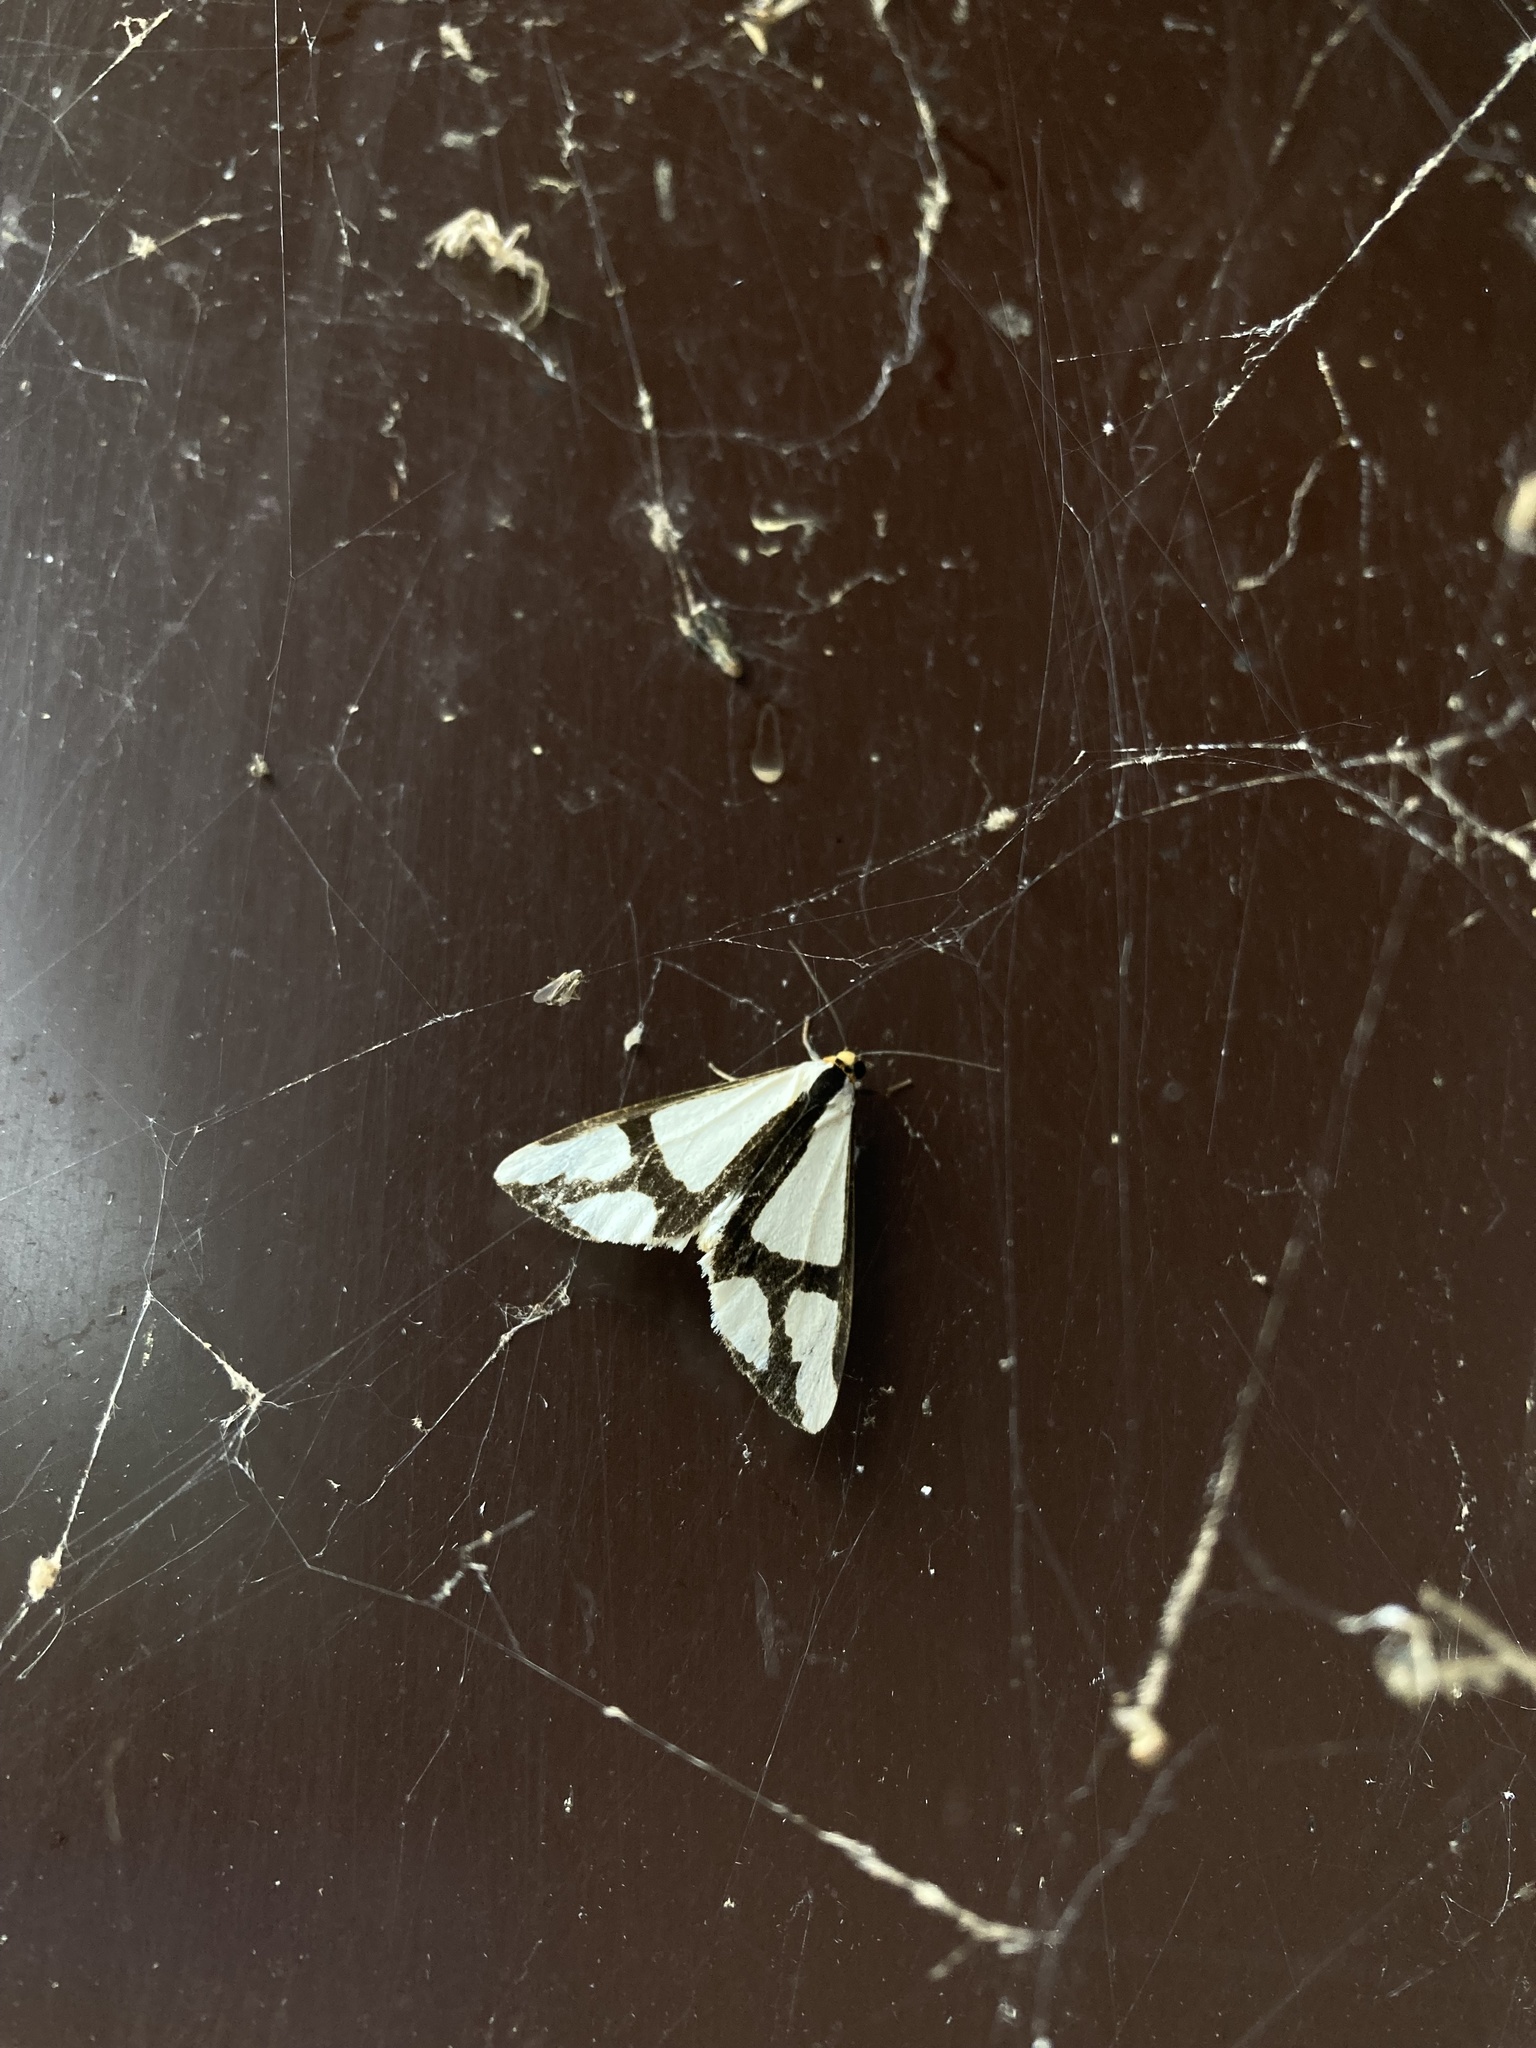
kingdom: Animalia
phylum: Arthropoda
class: Insecta
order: Lepidoptera
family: Erebidae
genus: Haploa
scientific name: Haploa contigua
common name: Neighbor moth
